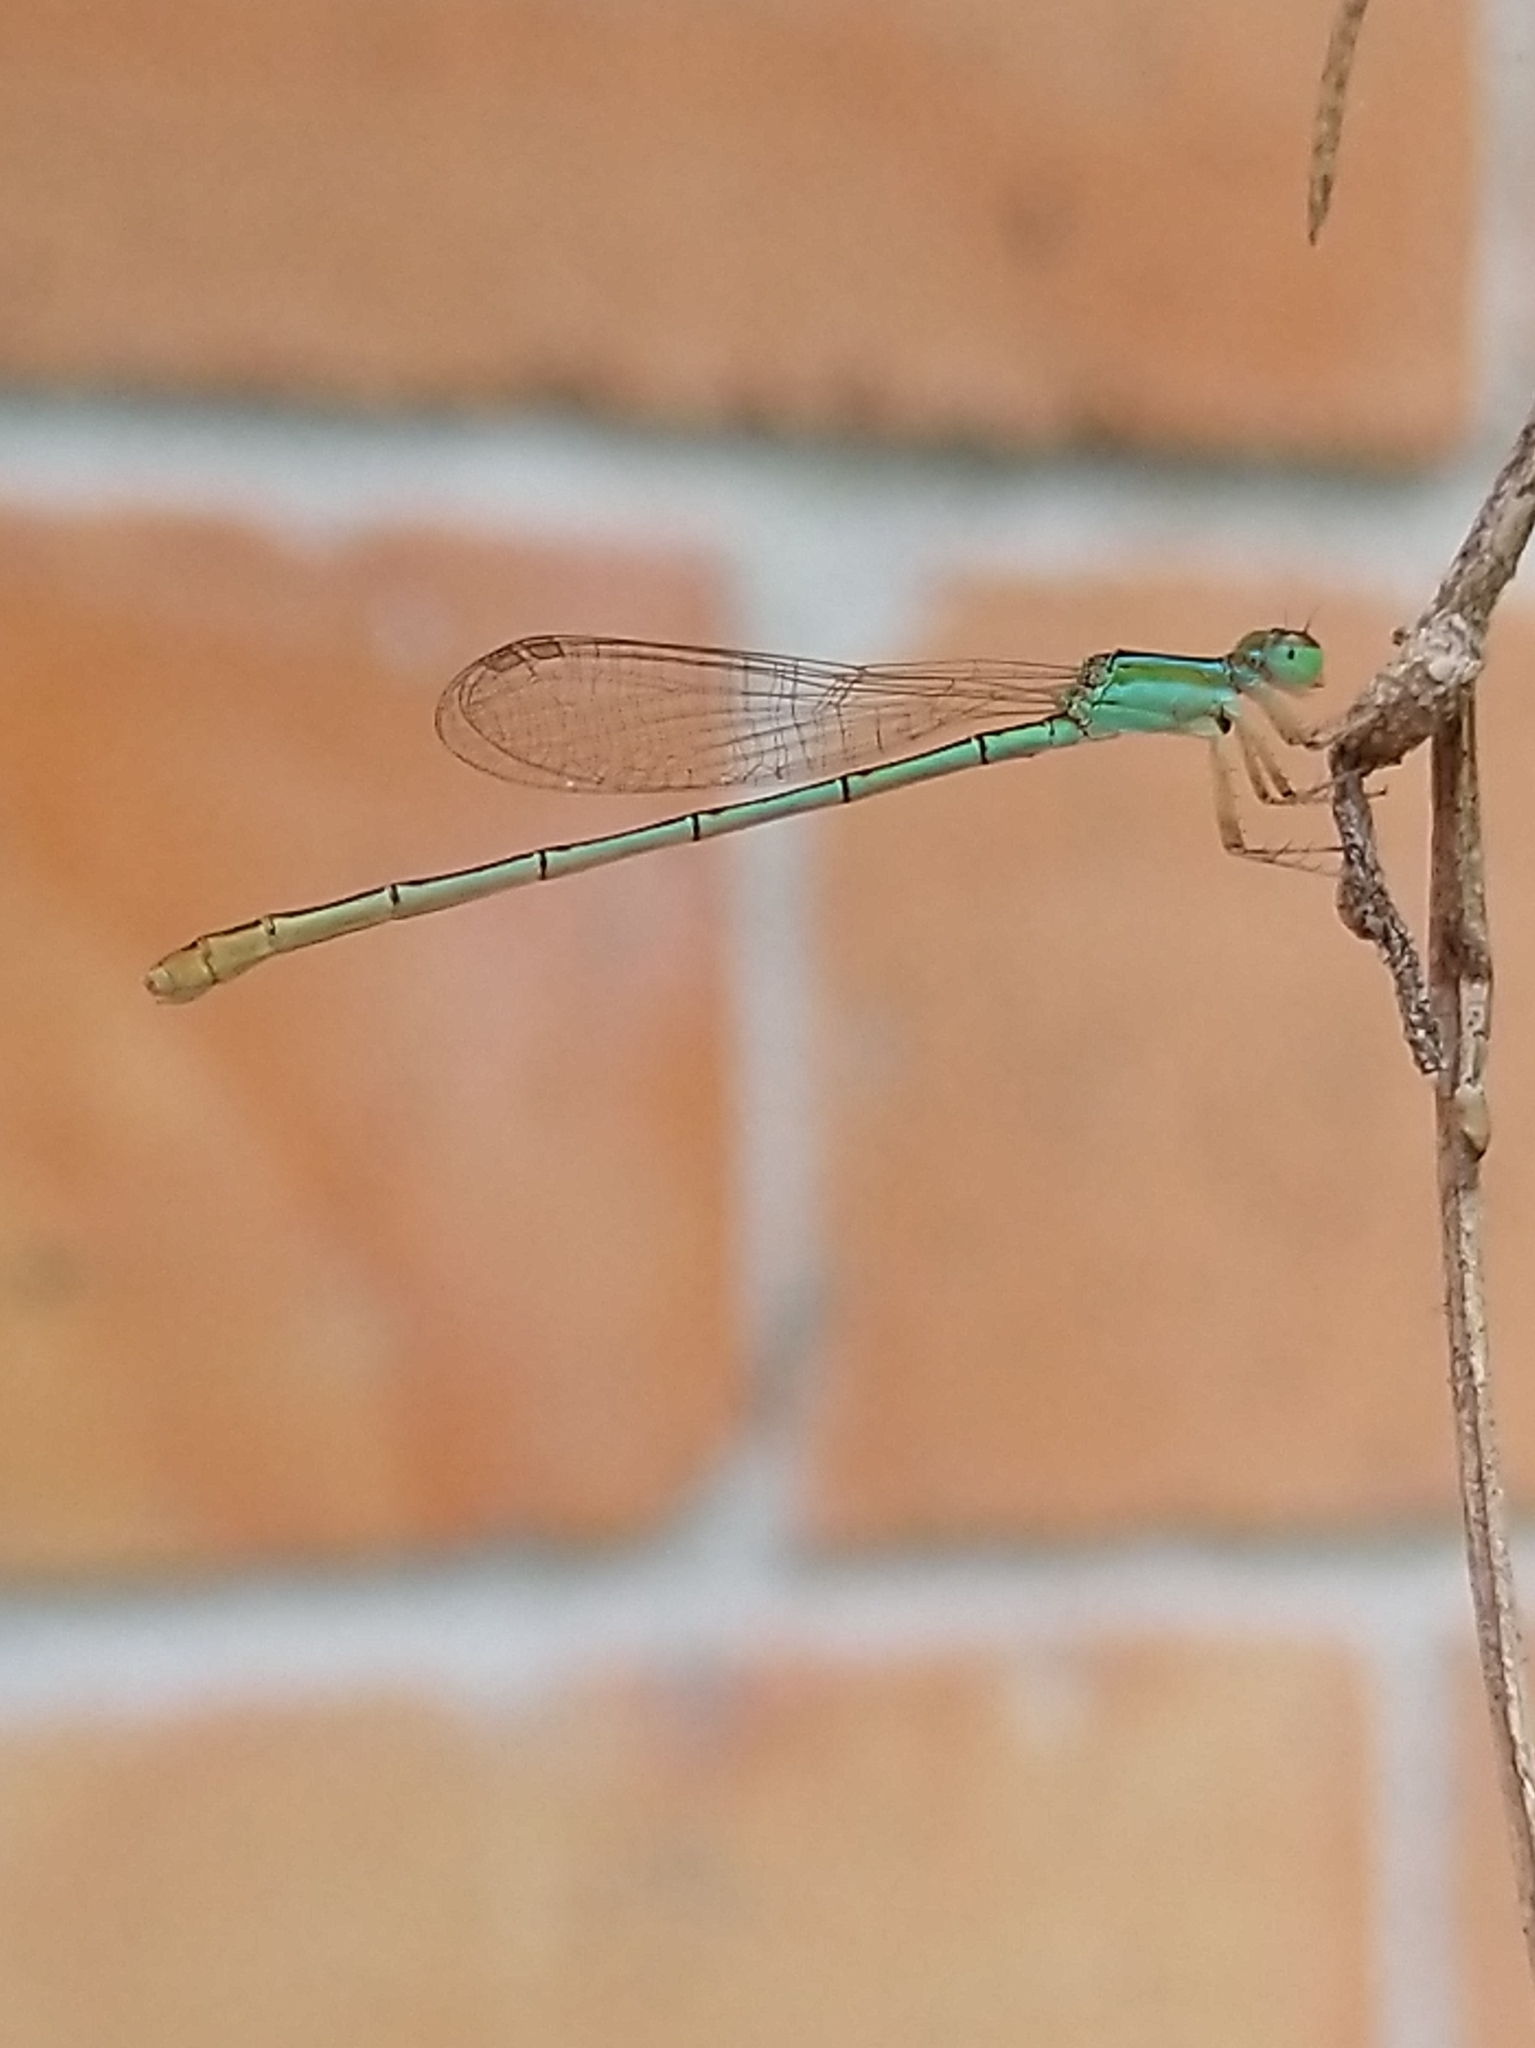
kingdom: Animalia
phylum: Arthropoda
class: Insecta
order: Odonata
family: Coenagrionidae
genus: Agriocnemis
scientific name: Agriocnemis pygmaea
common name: Pygmy wisp
